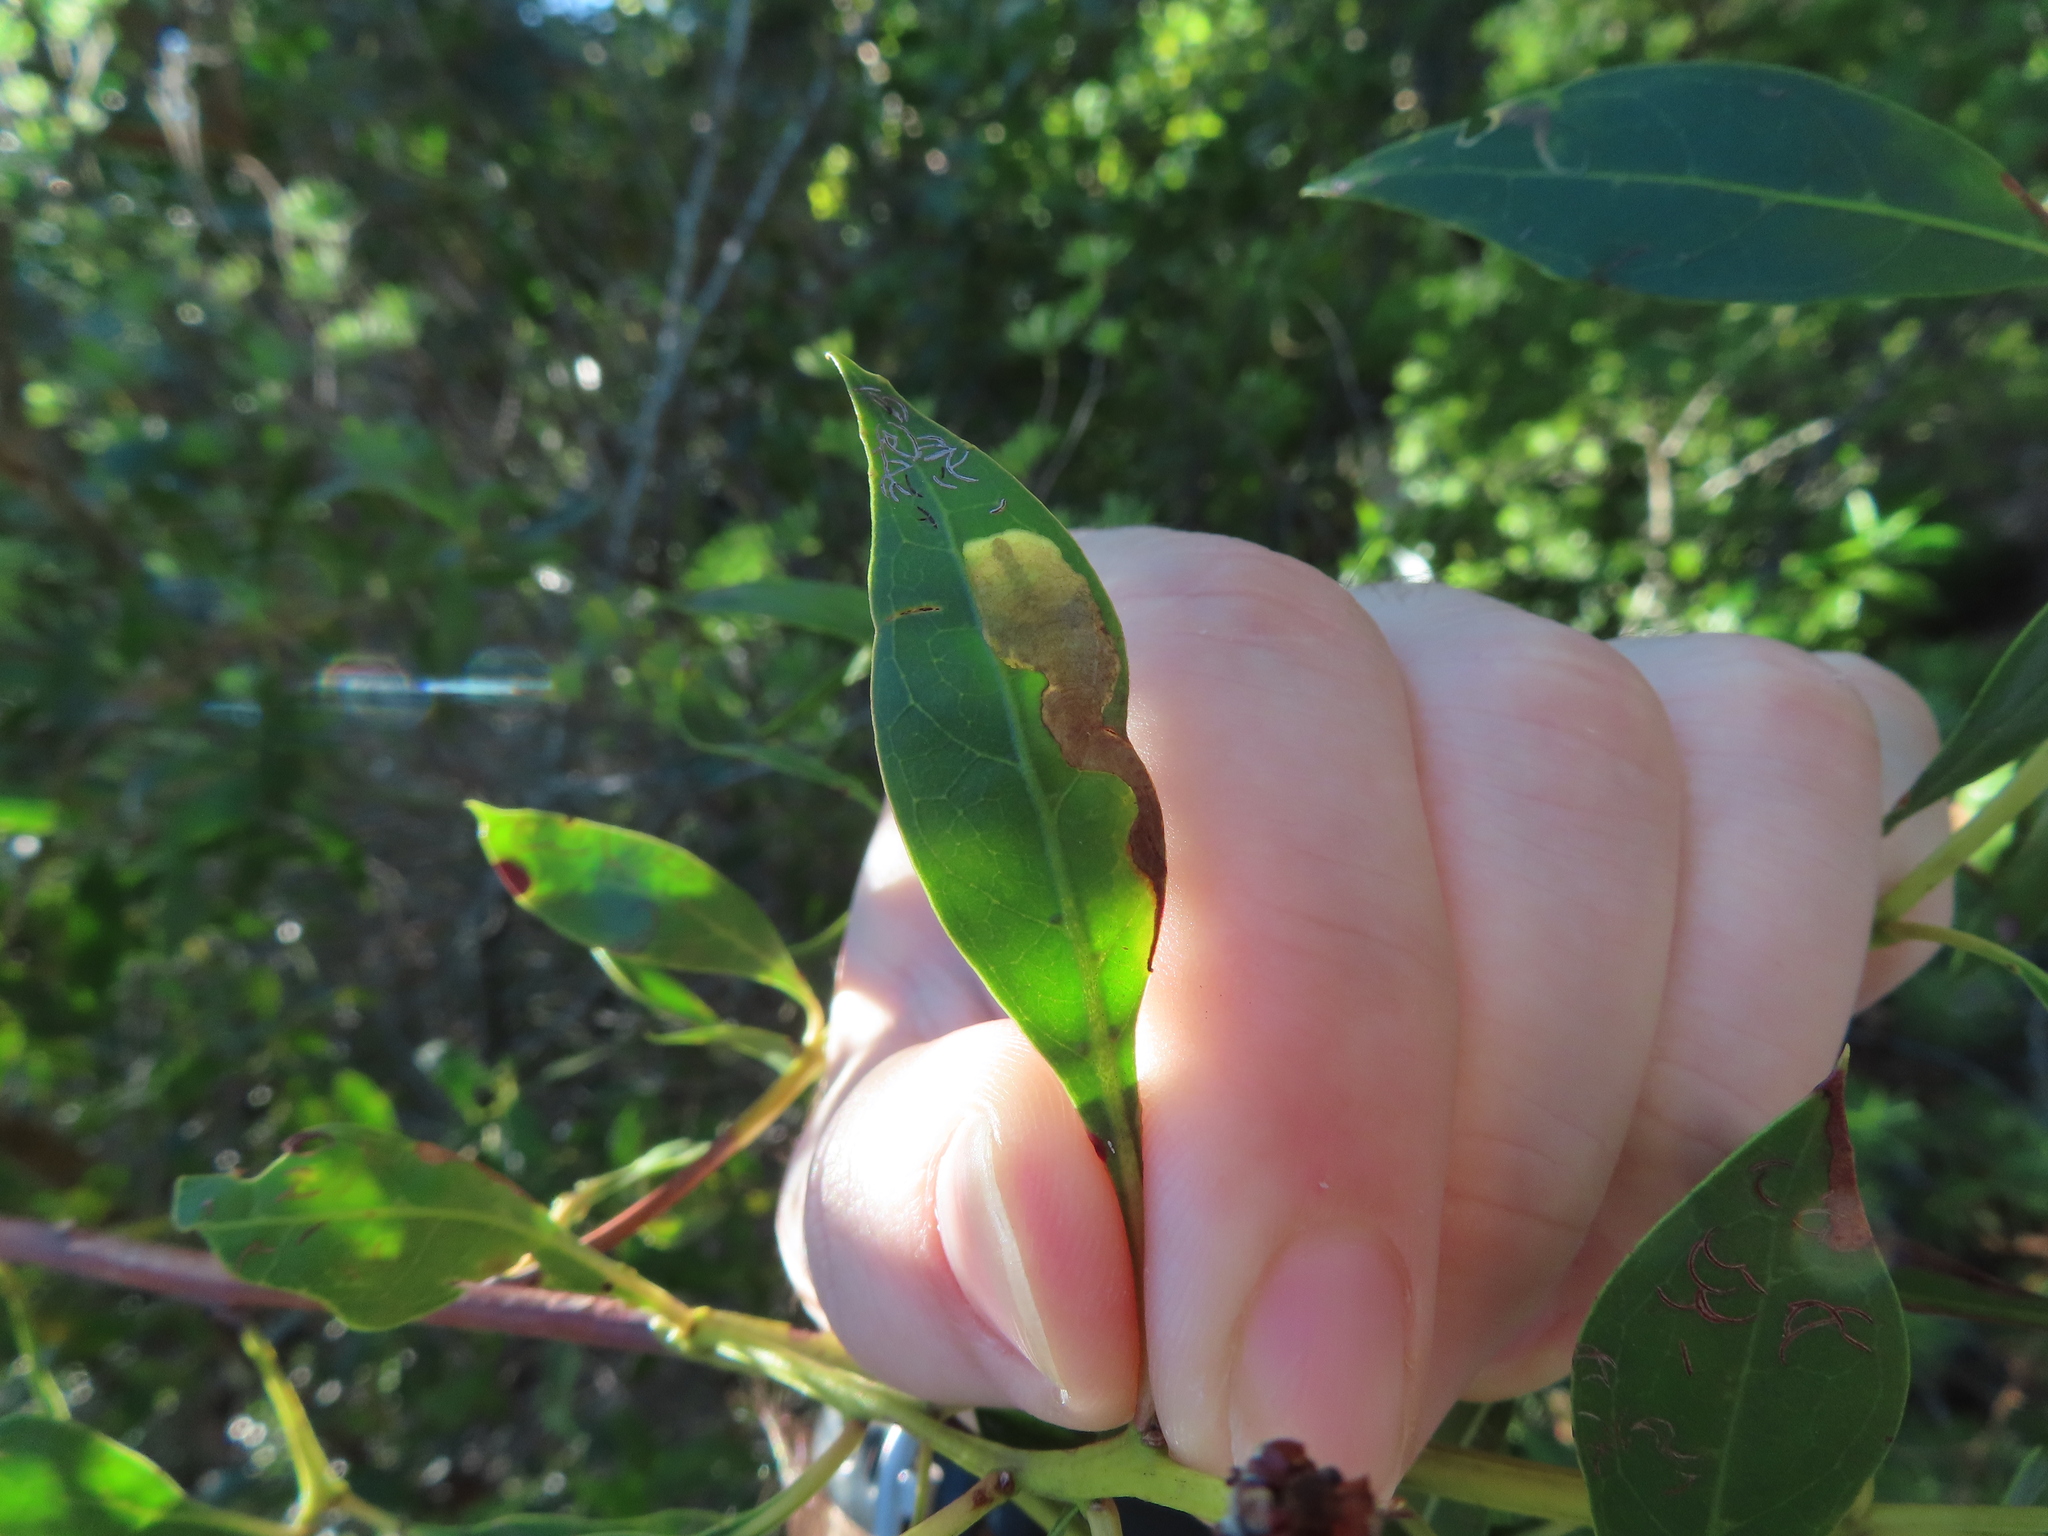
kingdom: Animalia
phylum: Arthropoda
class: Insecta
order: Coleoptera
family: Chrysomelidae
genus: Chaetocnema
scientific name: Chaetocnema brunnescens
